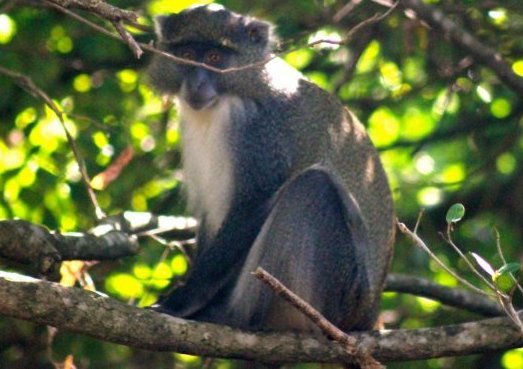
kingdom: Animalia
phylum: Chordata
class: Mammalia
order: Primates
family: Cercopithecidae
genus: Cercopithecus
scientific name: Cercopithecus mitis
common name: Blue monkey
